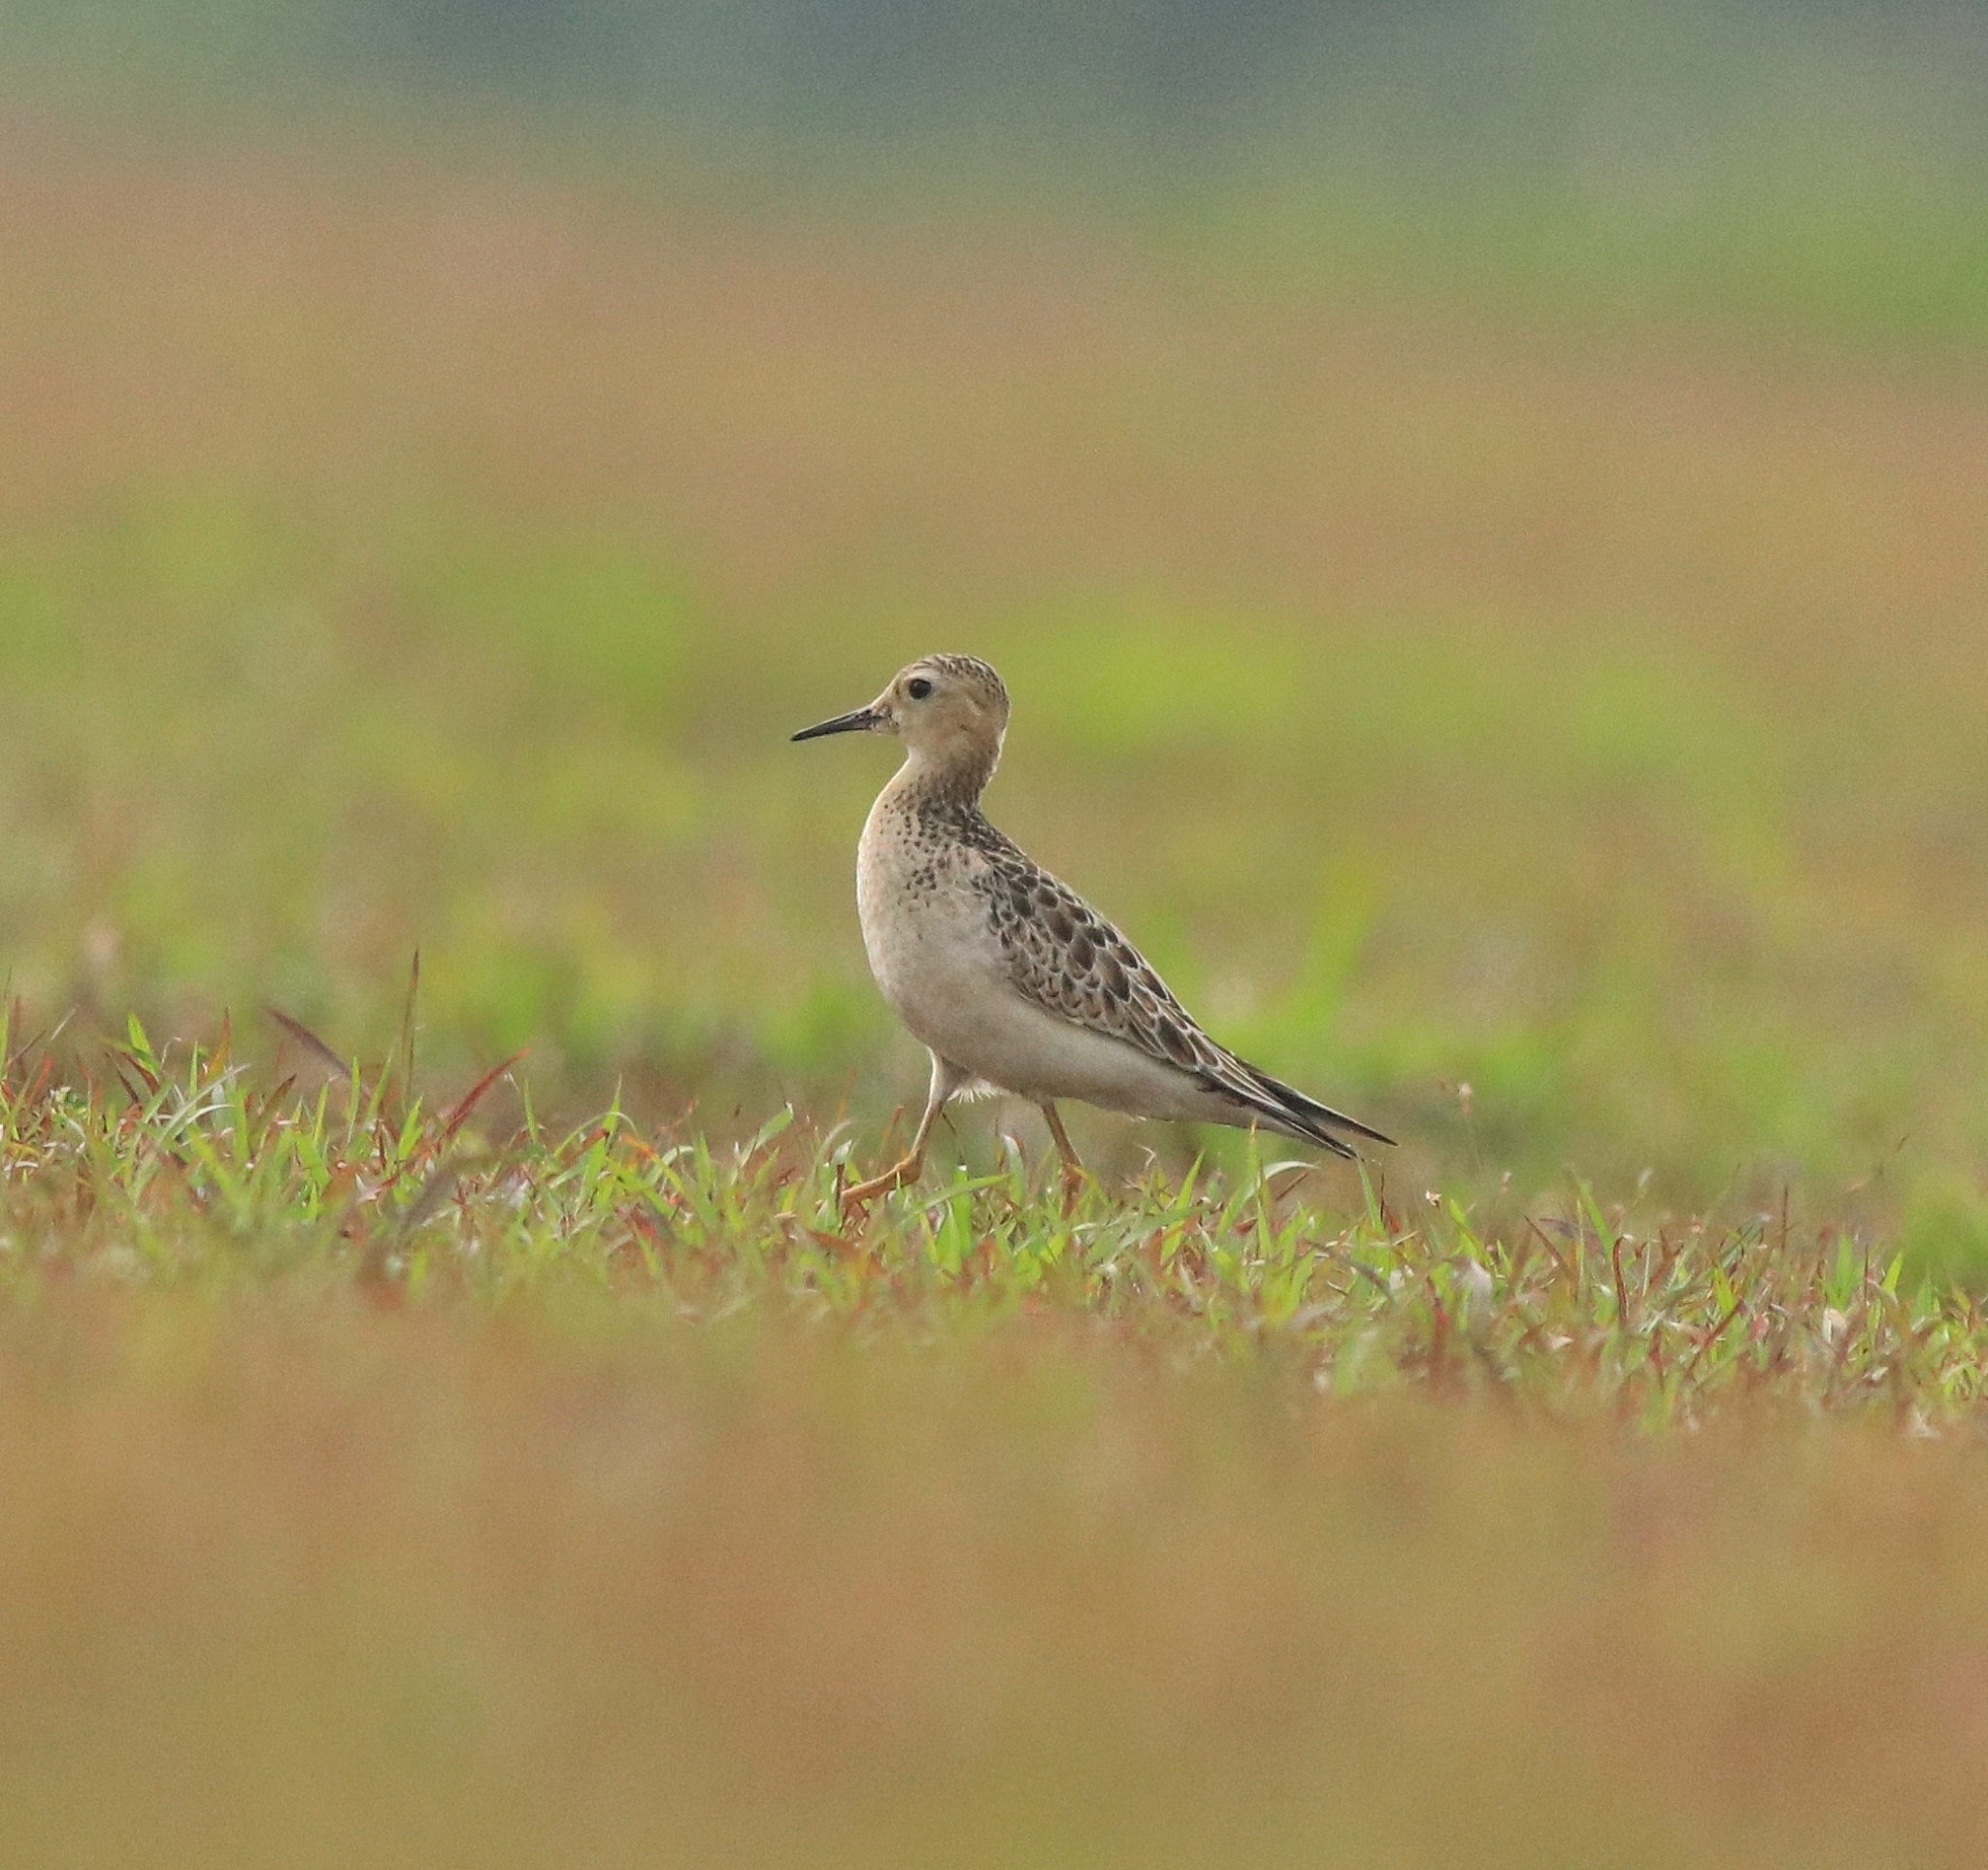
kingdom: Animalia
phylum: Chordata
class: Aves
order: Charadriiformes
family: Scolopacidae
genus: Calidris
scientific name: Calidris subruficollis
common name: Buff-breasted sandpiper
